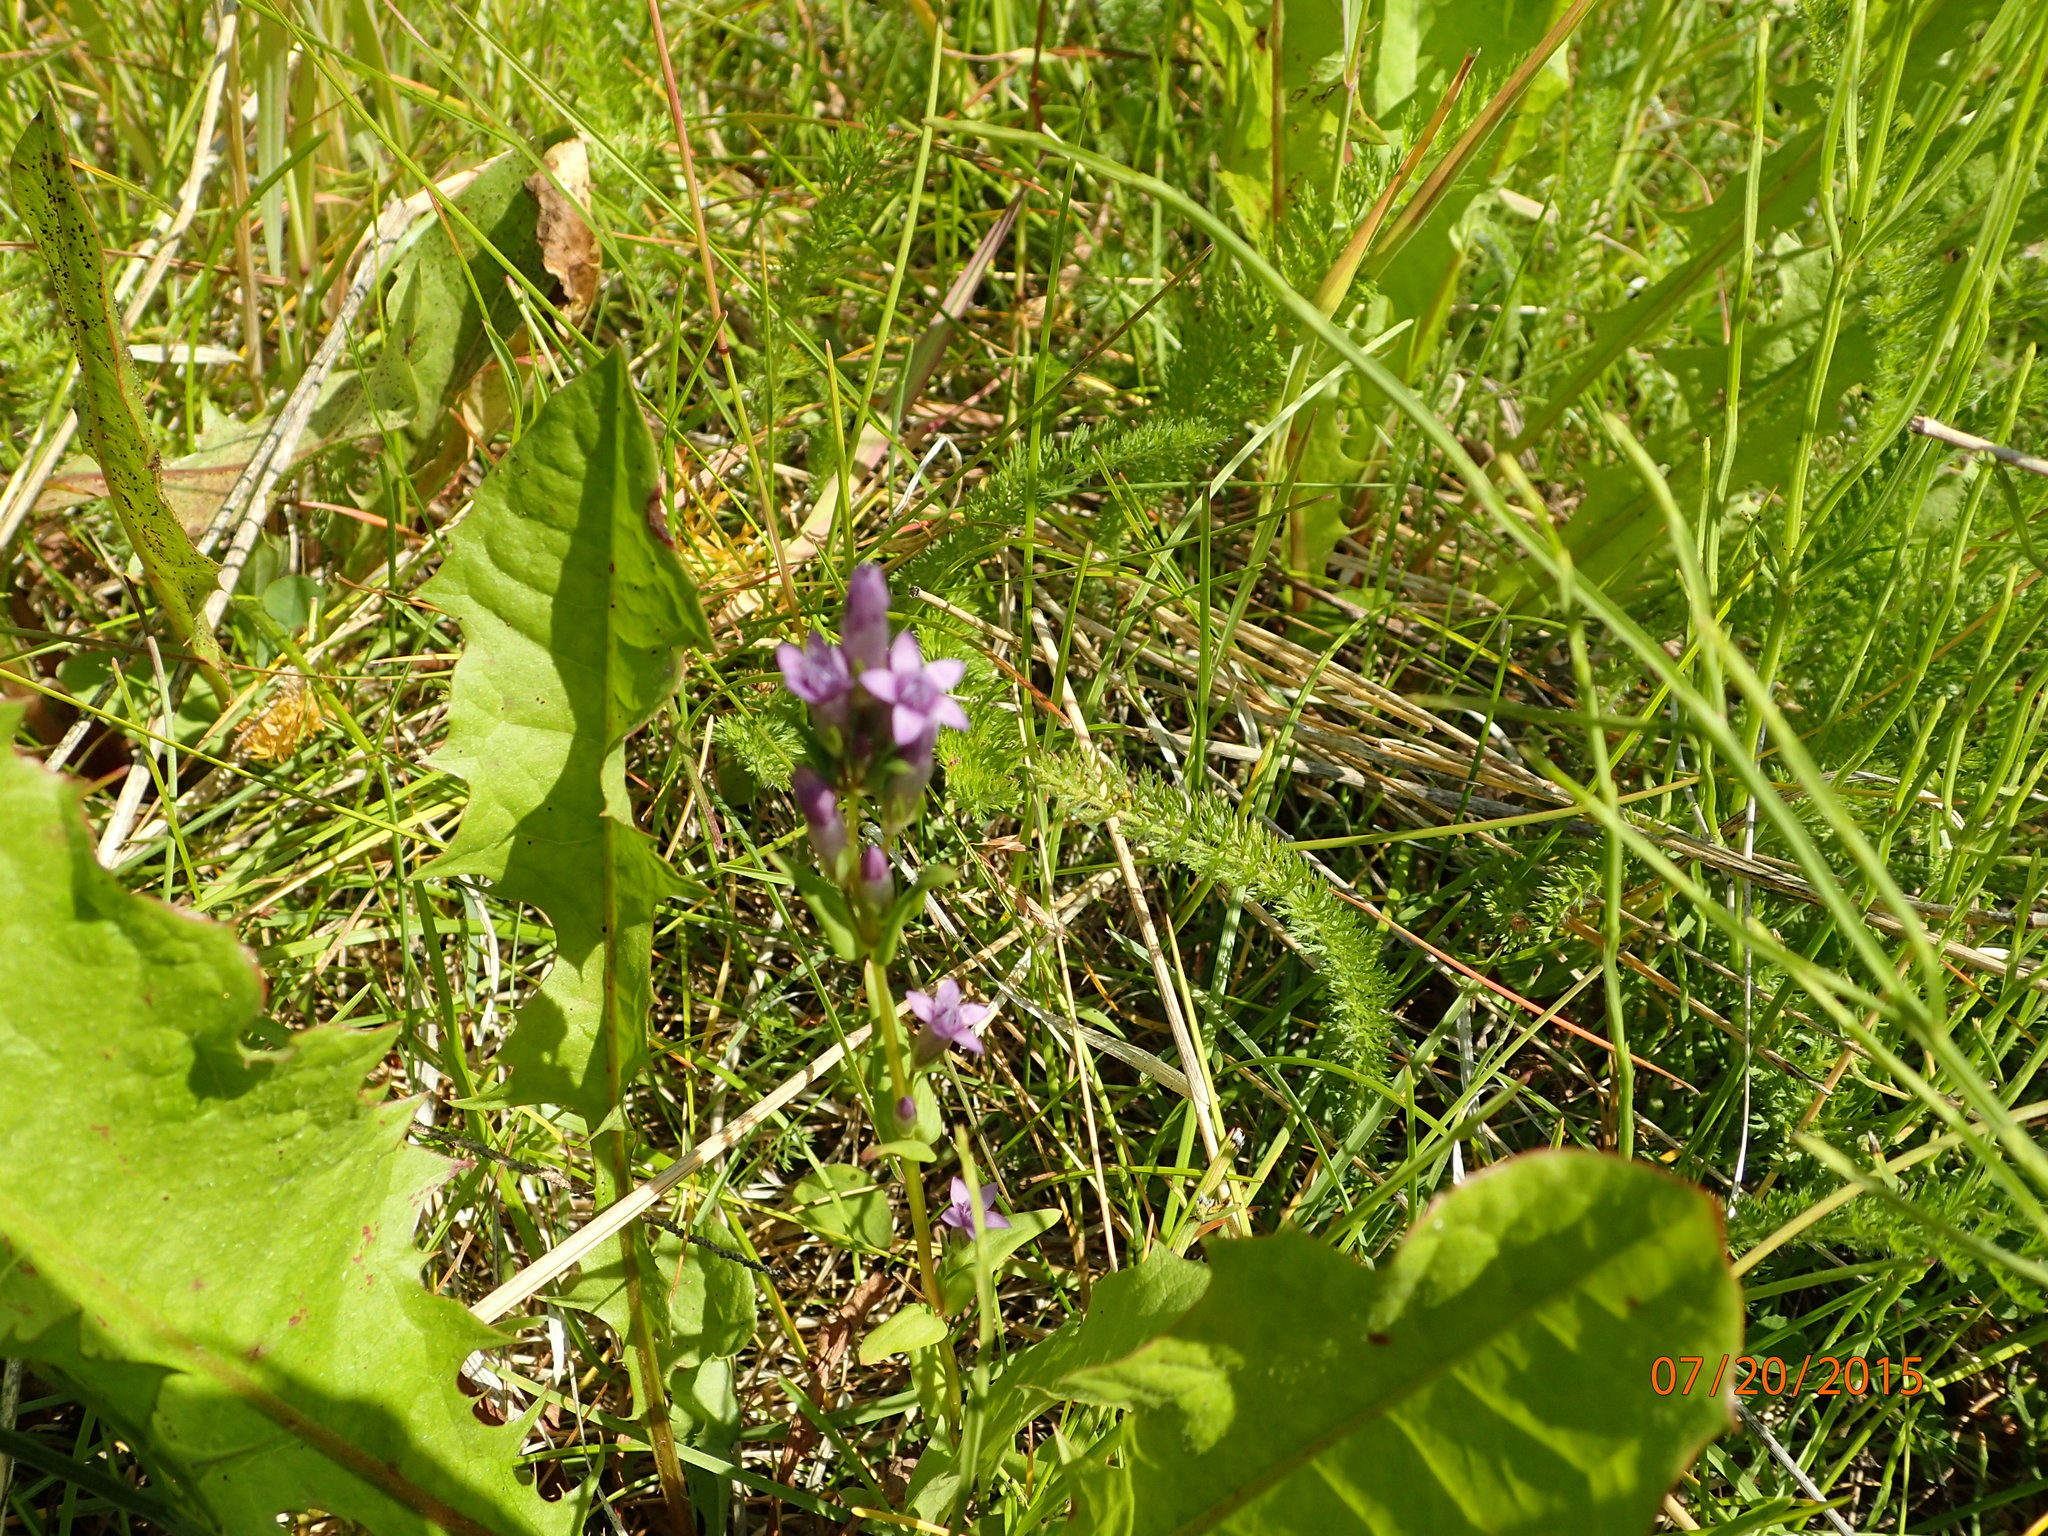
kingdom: Plantae
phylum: Tracheophyta
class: Magnoliopsida
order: Gentianales
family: Gentianaceae
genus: Gentianella
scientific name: Gentianella amarella
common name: Autumn gentian
